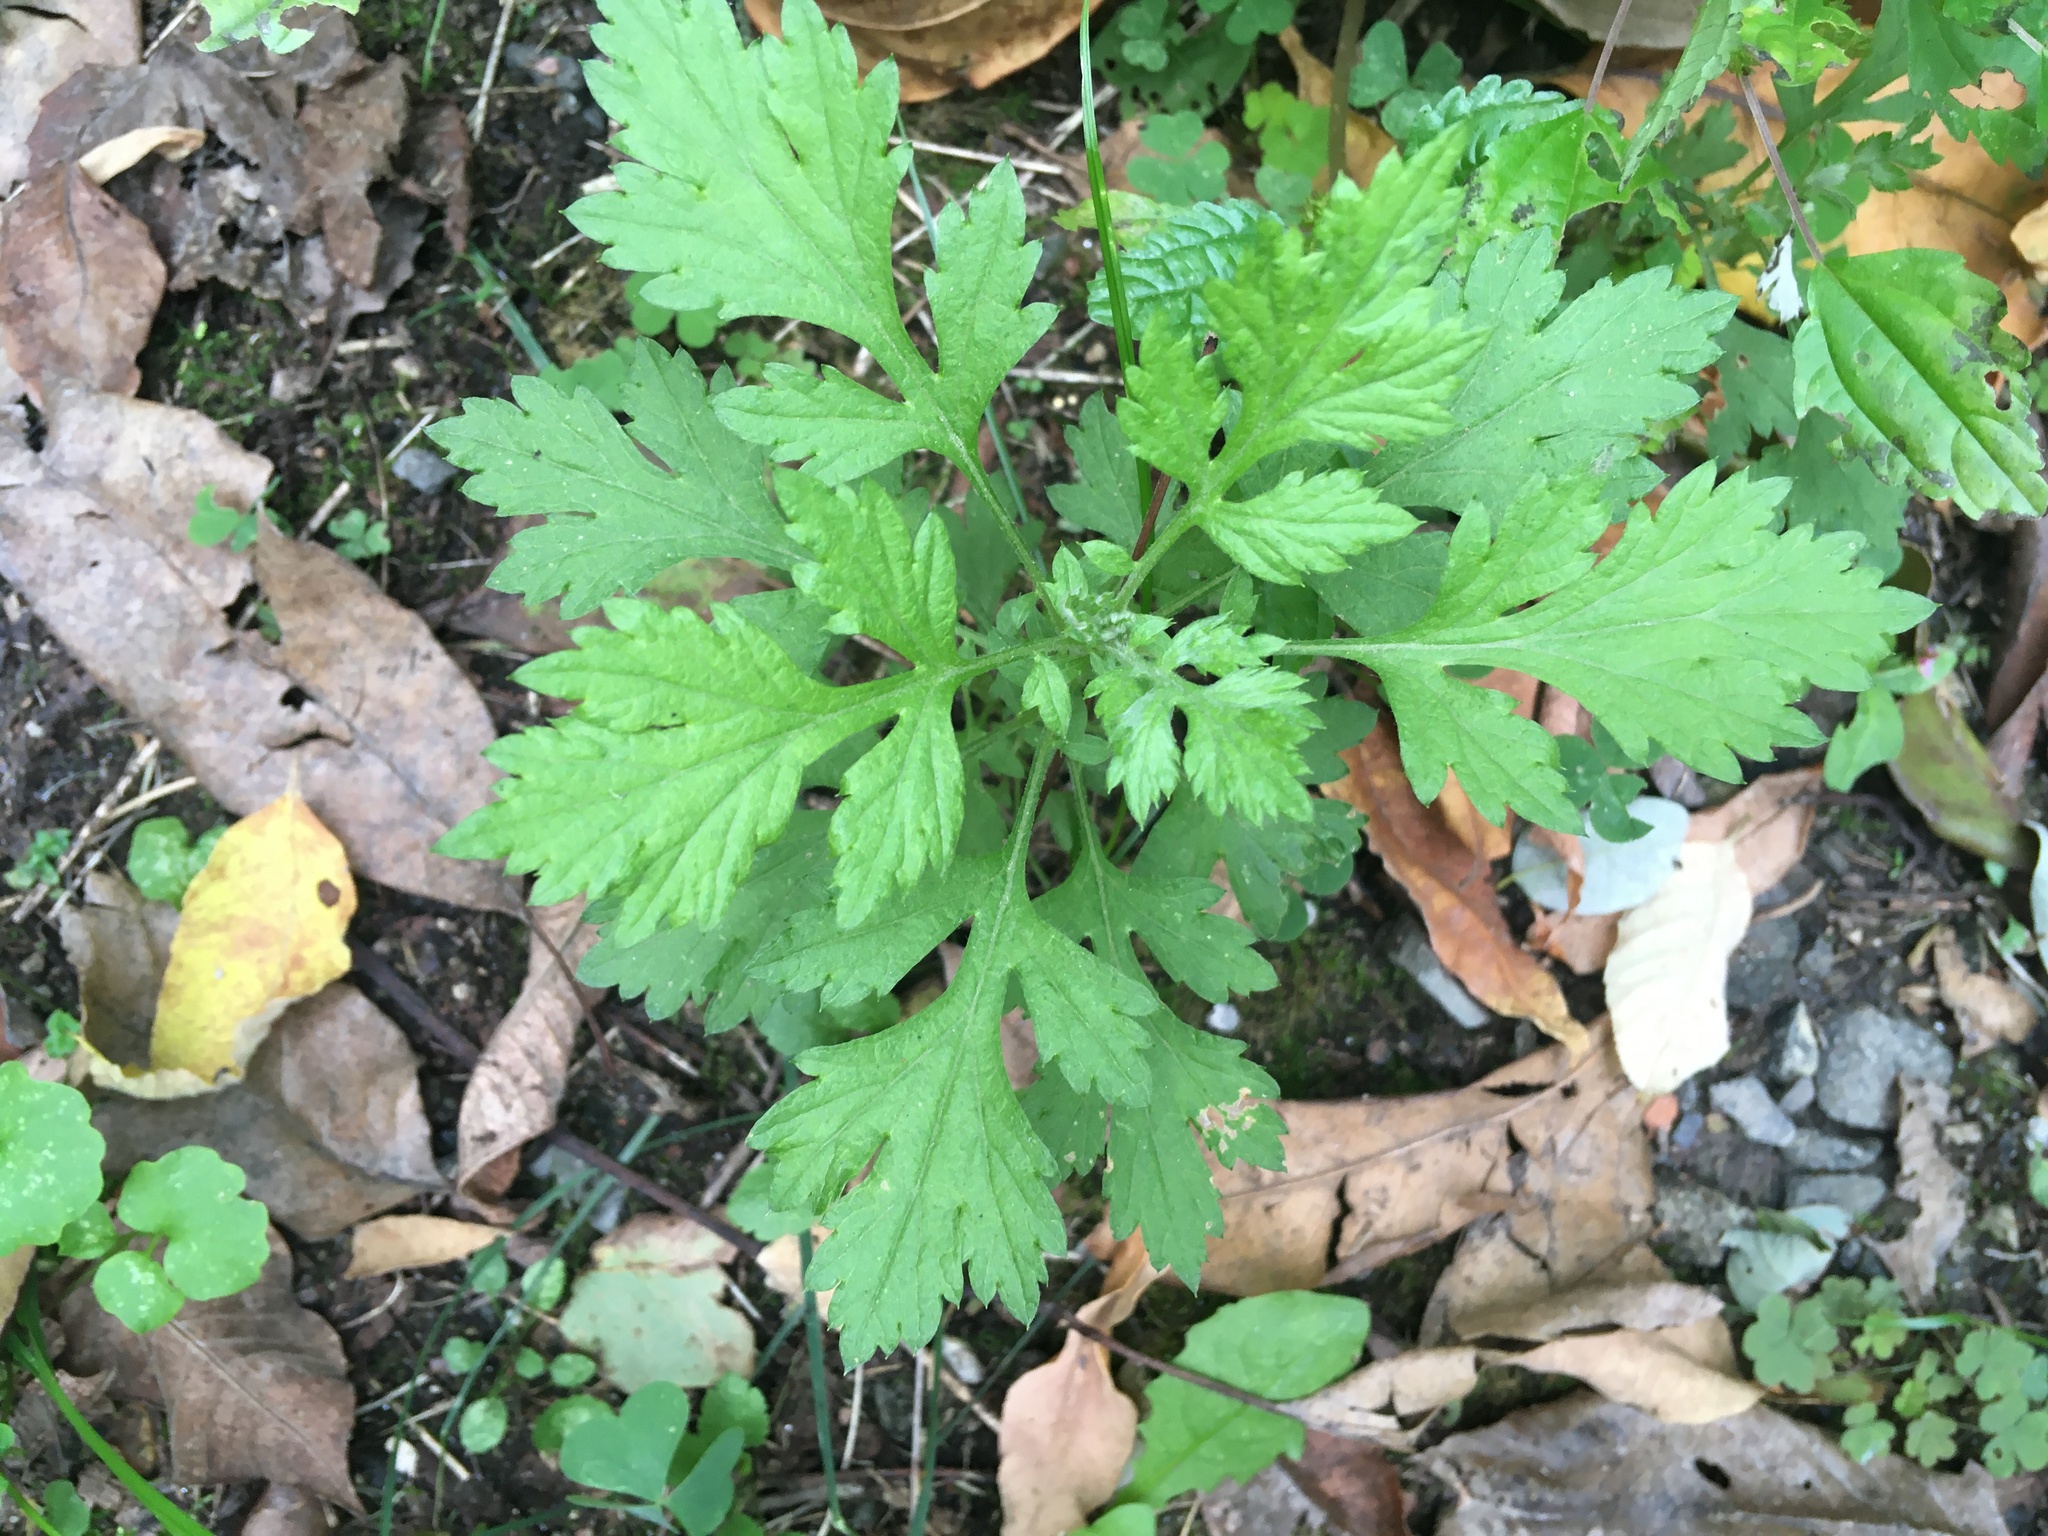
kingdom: Plantae
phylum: Tracheophyta
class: Magnoliopsida
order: Asterales
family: Asteraceae
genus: Artemisia
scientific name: Artemisia vulgaris
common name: Mugwort
